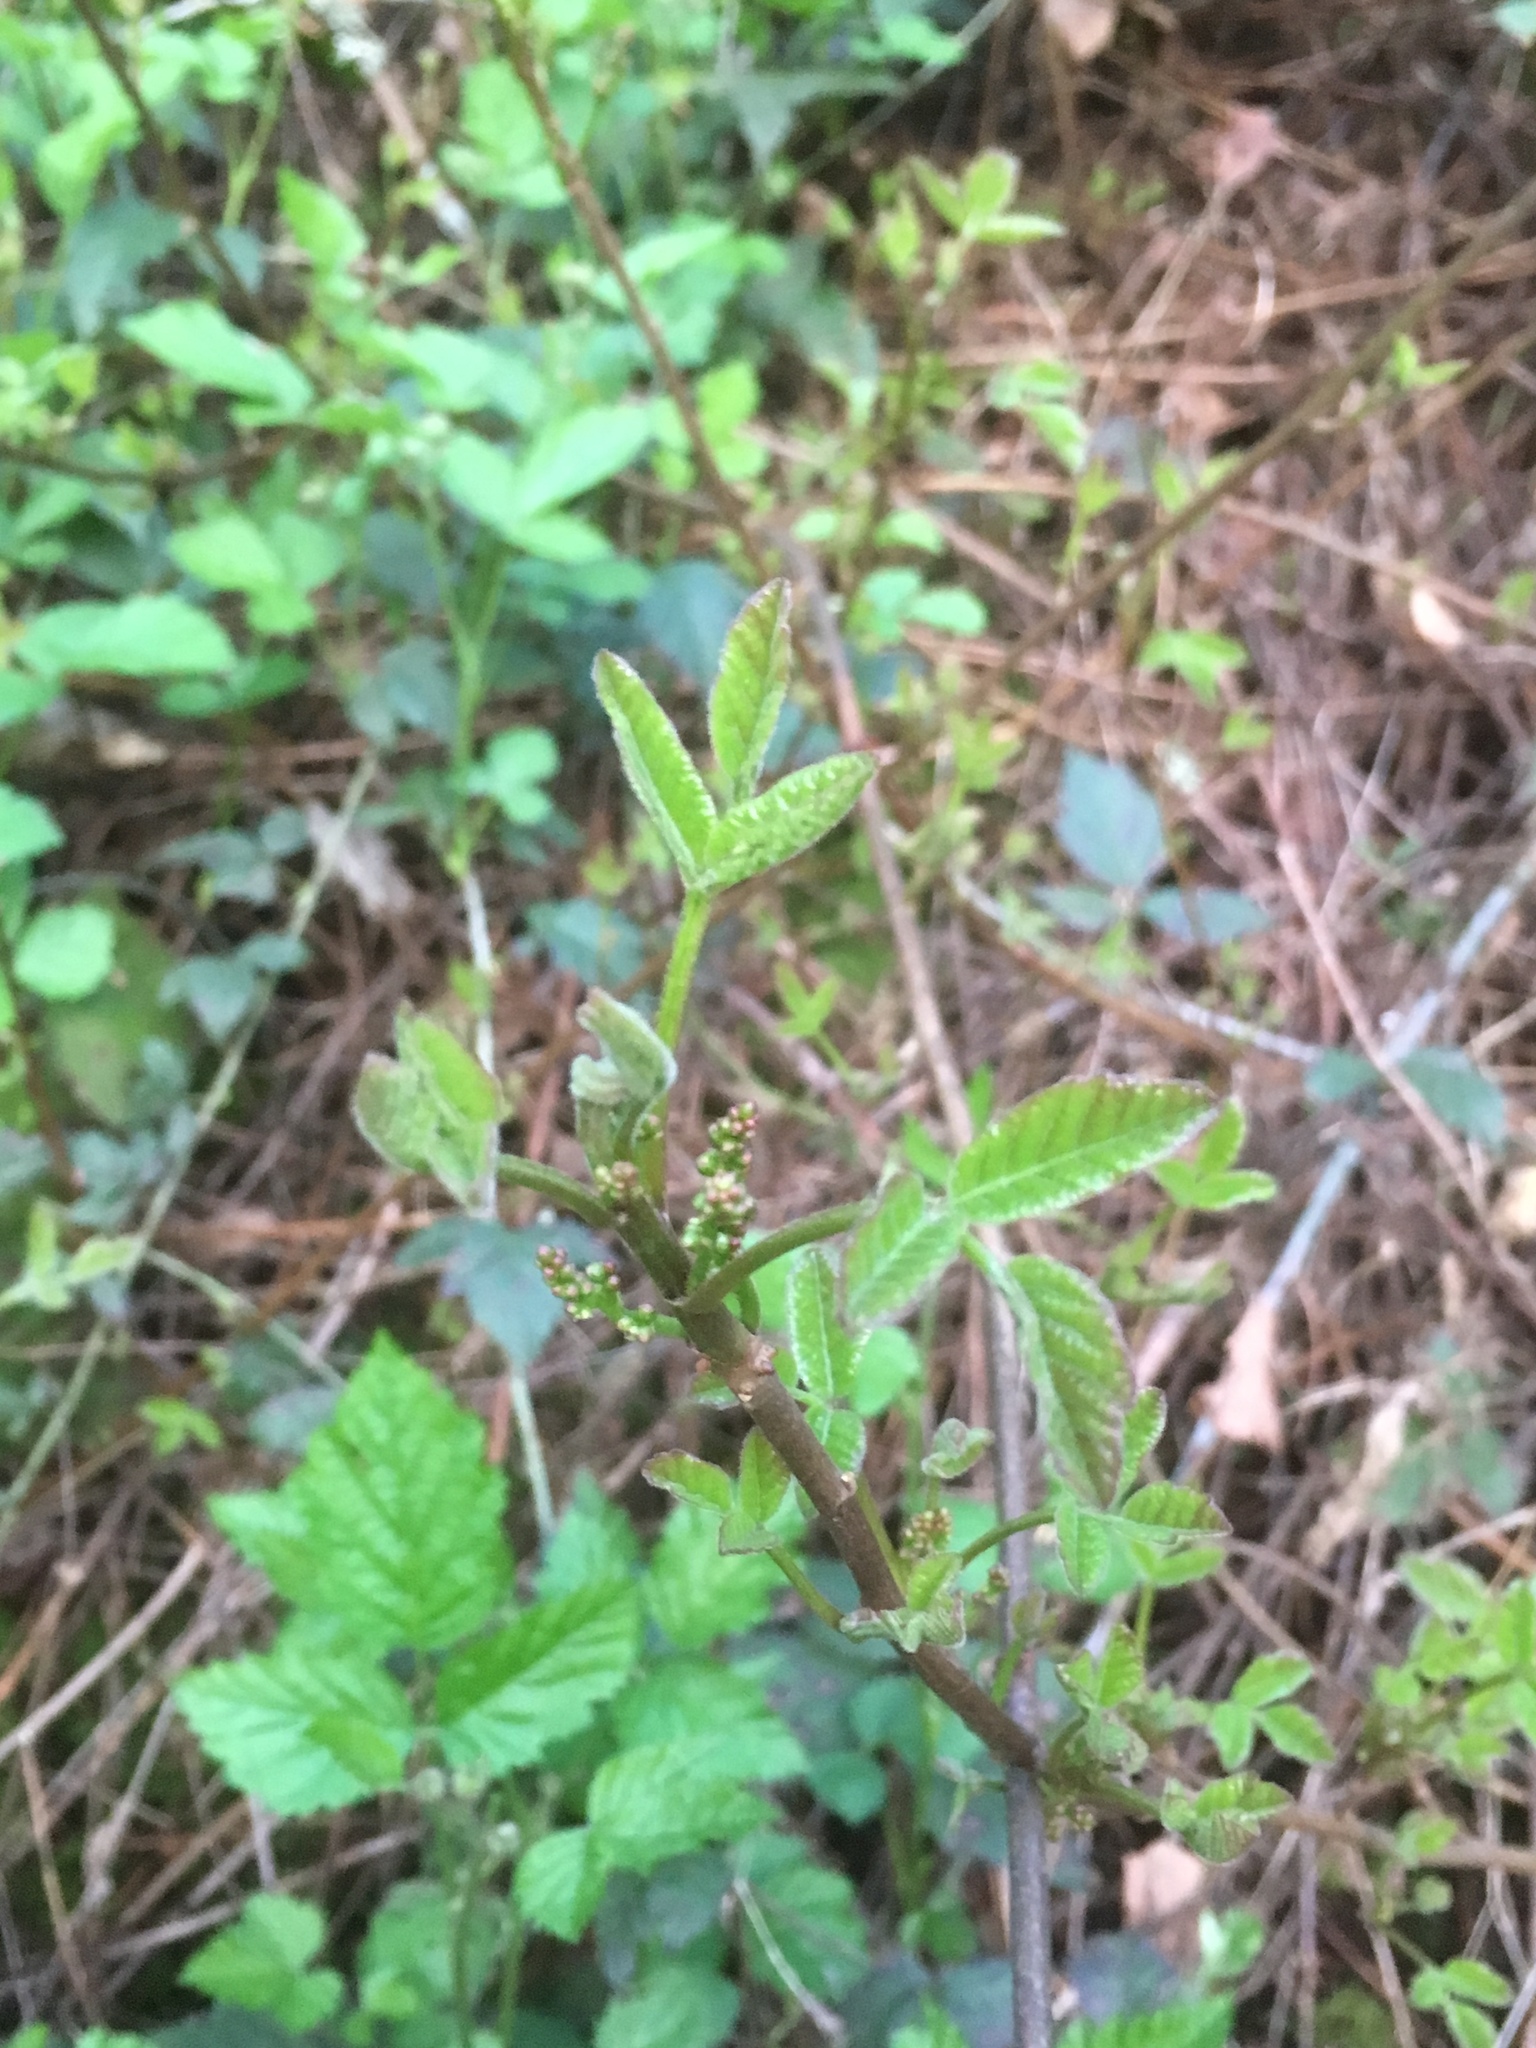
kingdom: Plantae
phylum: Tracheophyta
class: Magnoliopsida
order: Sapindales
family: Anacardiaceae
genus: Toxicodendron
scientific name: Toxicodendron diversilobum
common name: Pacific poison-oak
